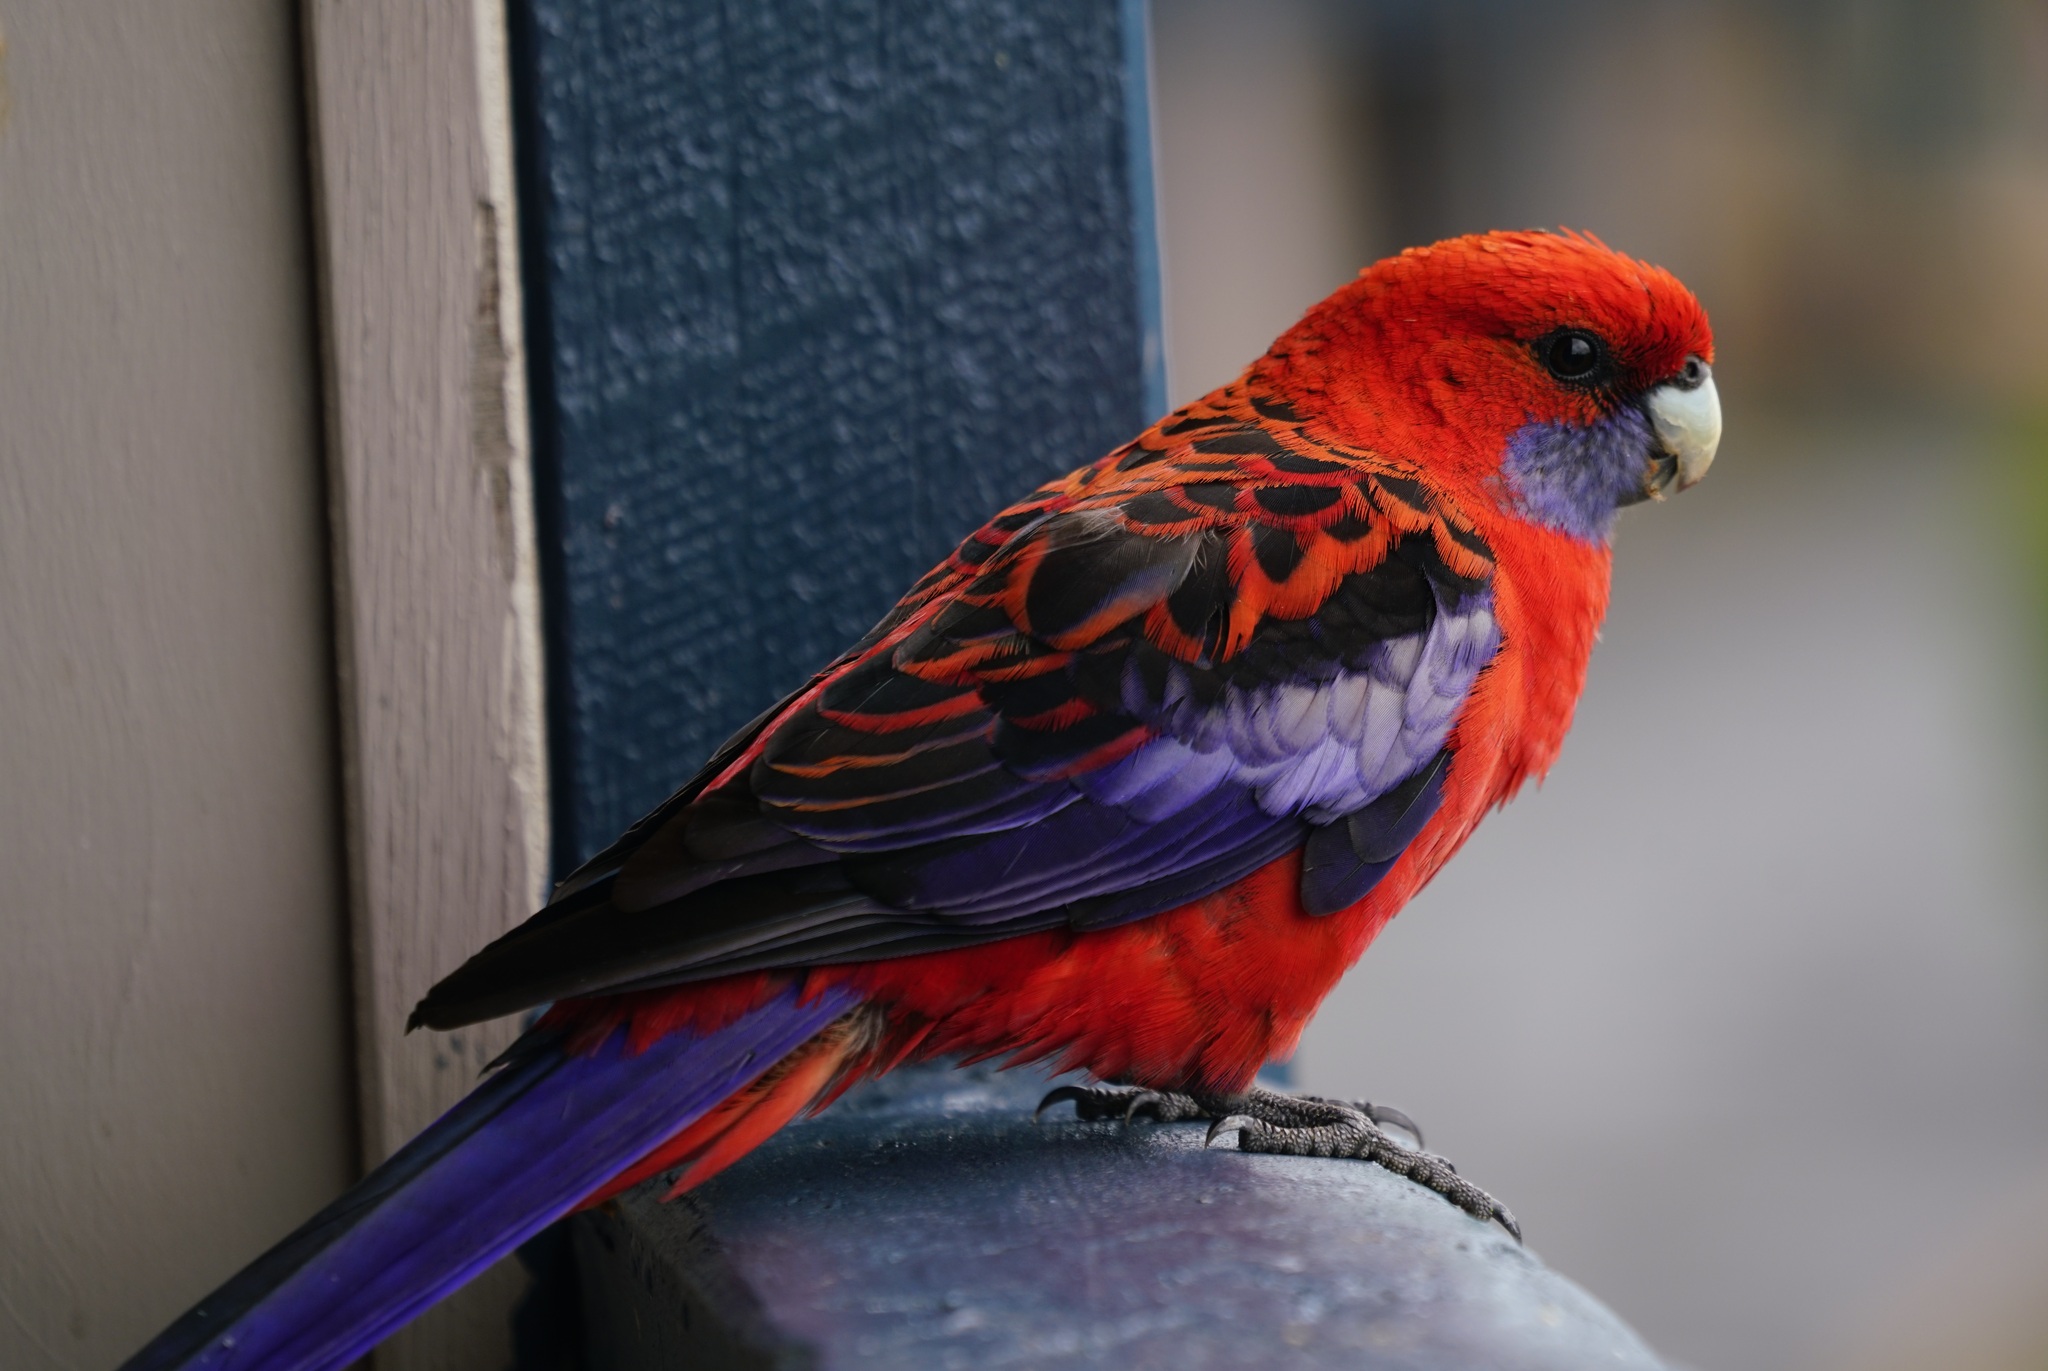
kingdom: Animalia
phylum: Chordata
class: Aves
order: Psittaciformes
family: Psittacidae
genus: Platycercus
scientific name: Platycercus elegans
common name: Crimson rosella
